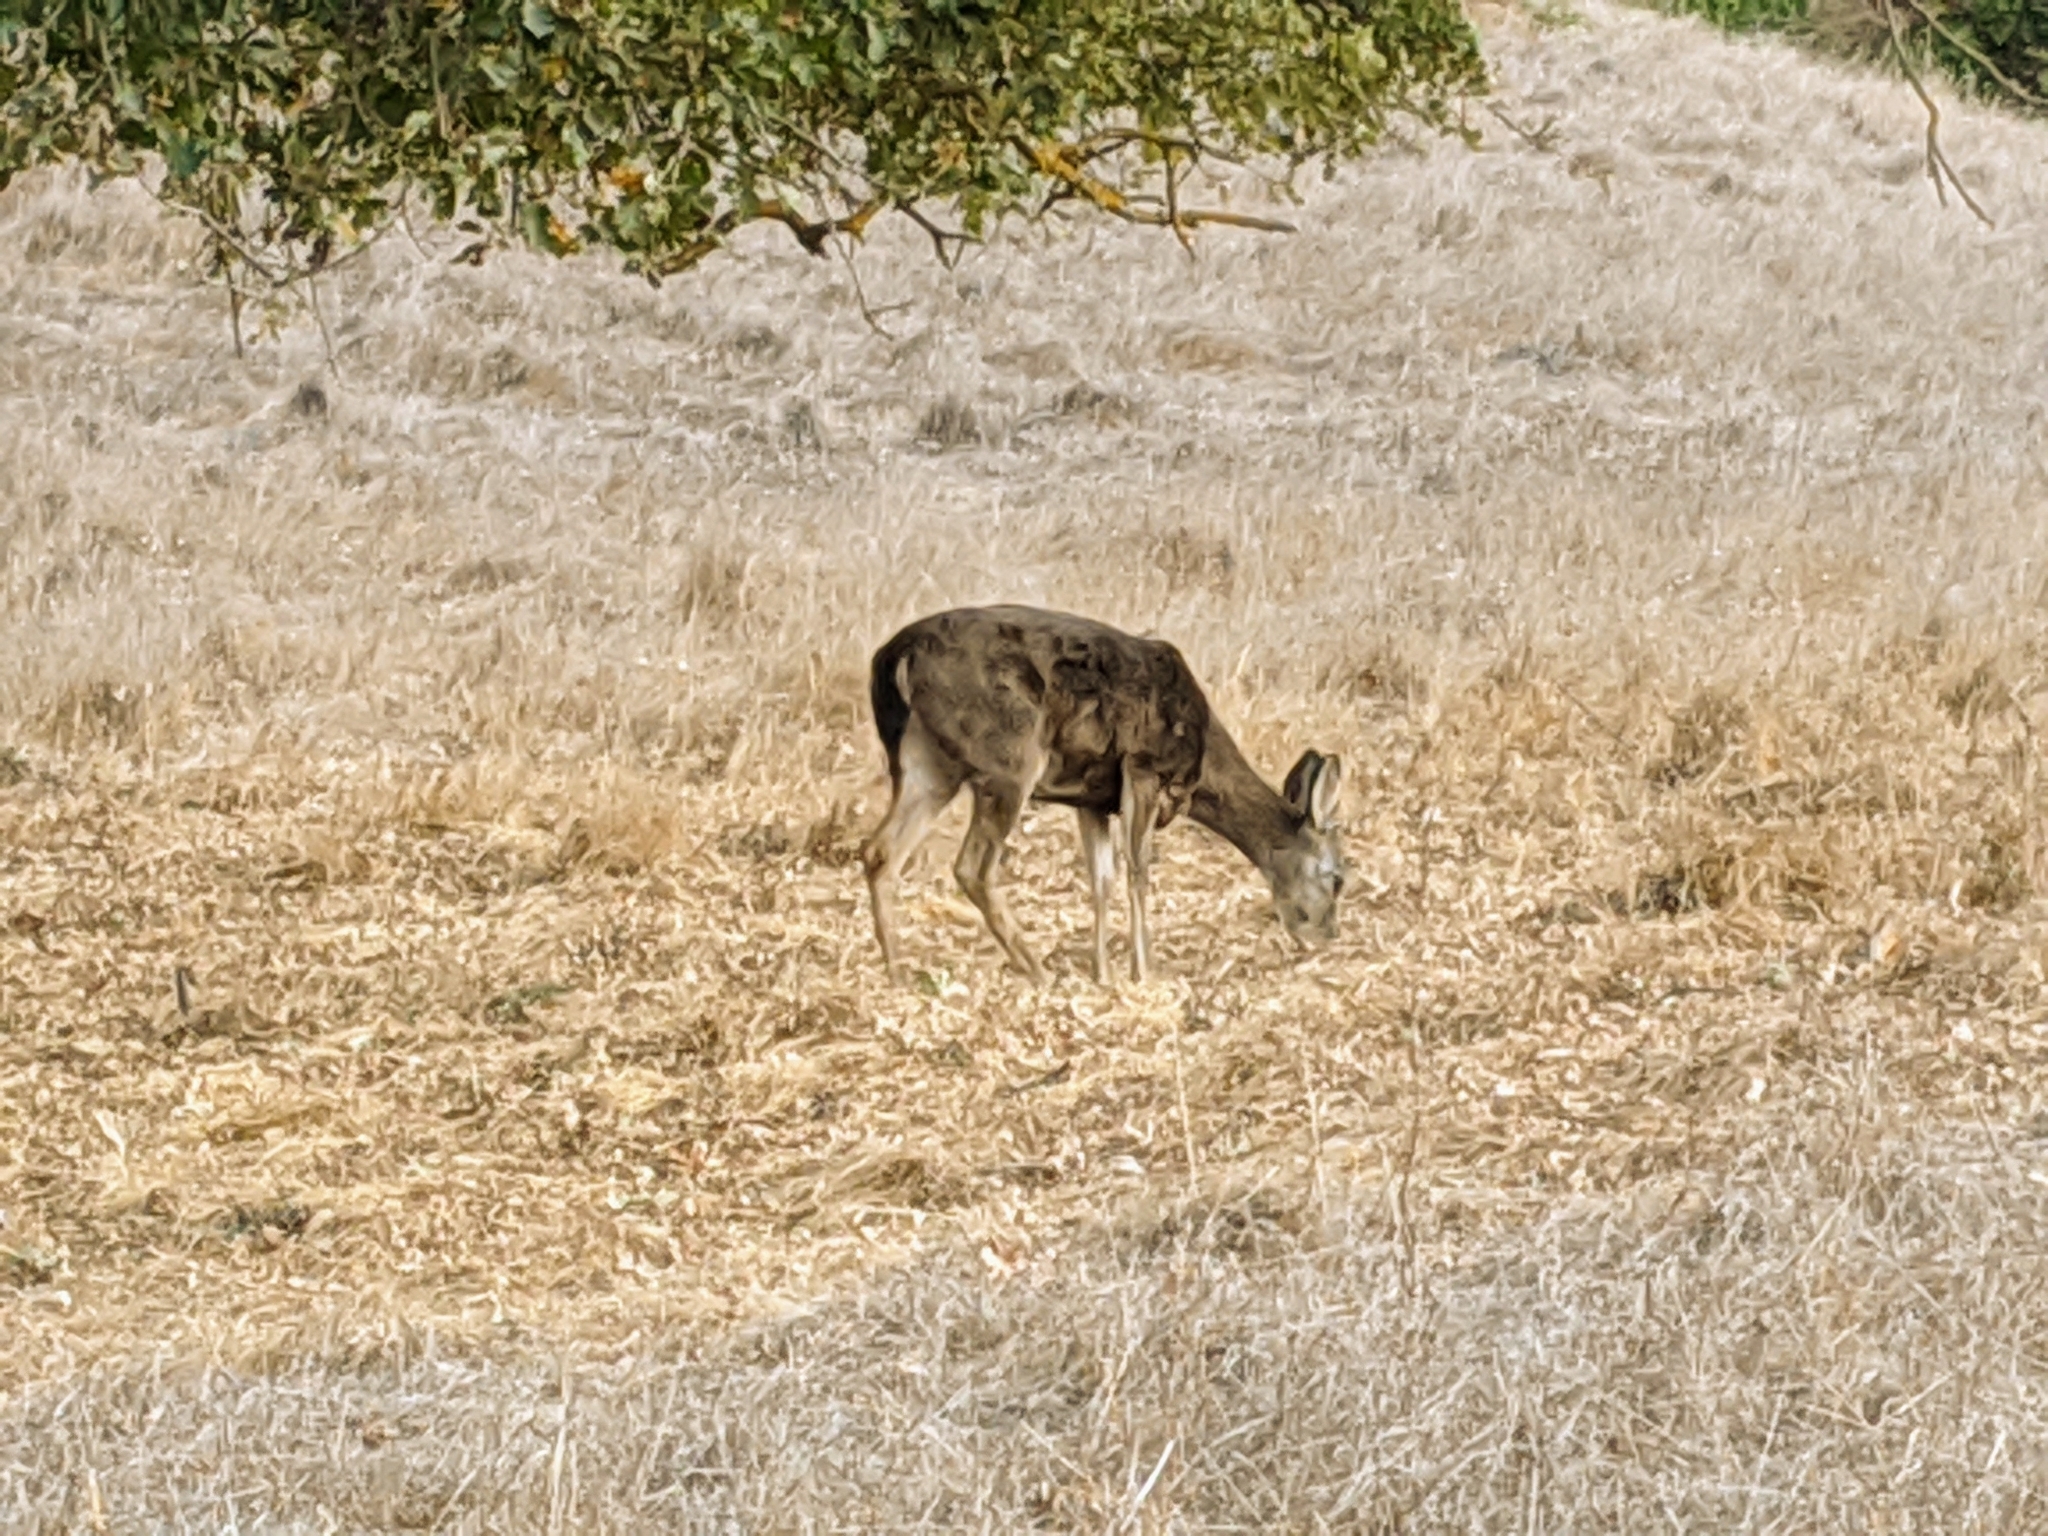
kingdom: Animalia
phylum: Chordata
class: Mammalia
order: Artiodactyla
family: Cervidae
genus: Odocoileus
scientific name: Odocoileus hemionus
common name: Mule deer
